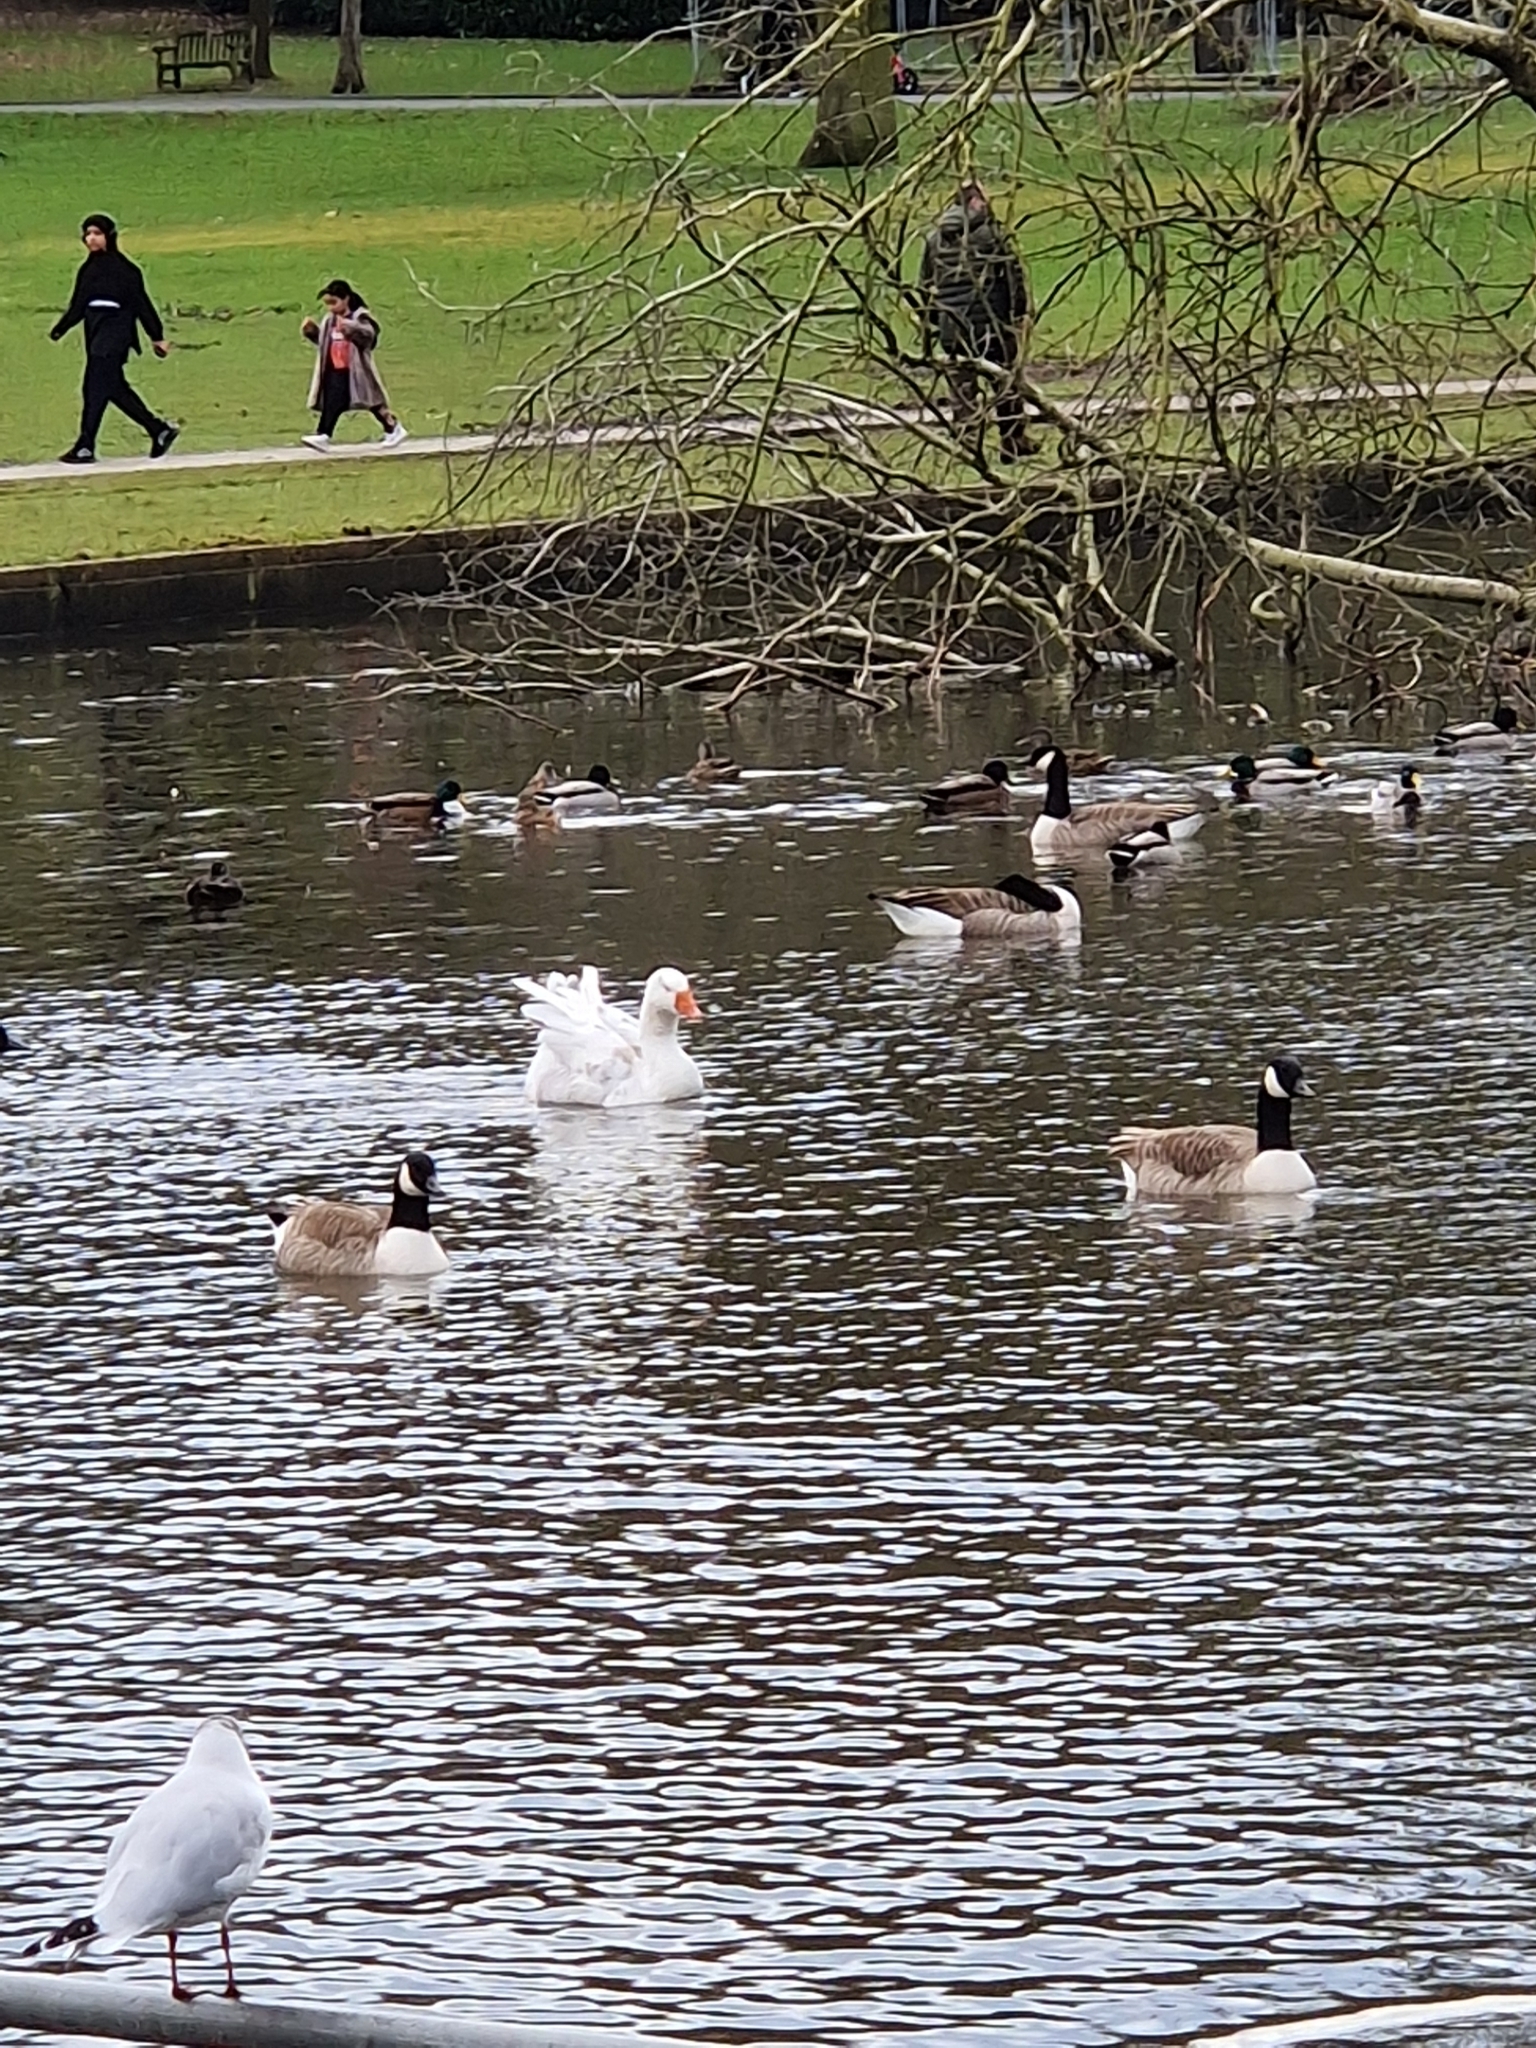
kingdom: Animalia
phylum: Chordata
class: Aves
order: Anseriformes
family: Anatidae
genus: Anser
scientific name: Anser anser
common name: Greylag goose
